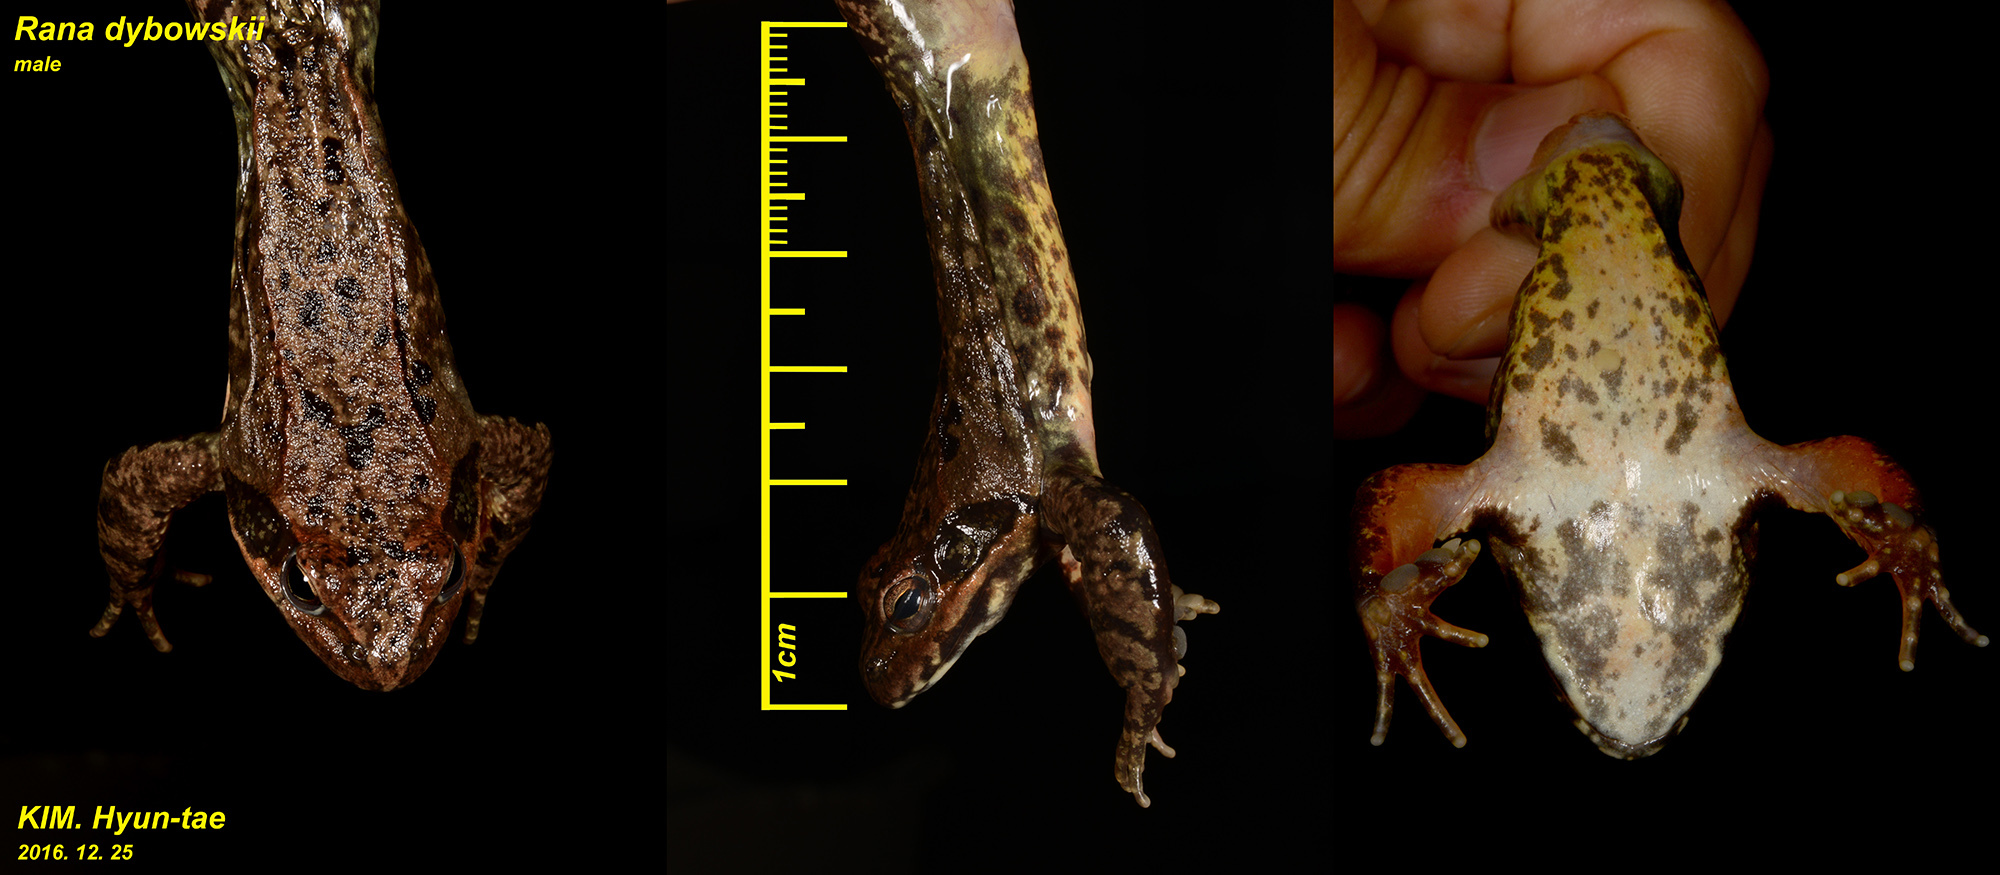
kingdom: Animalia
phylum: Chordata
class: Amphibia
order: Anura
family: Ranidae
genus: Rana
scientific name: Rana dybowskii
